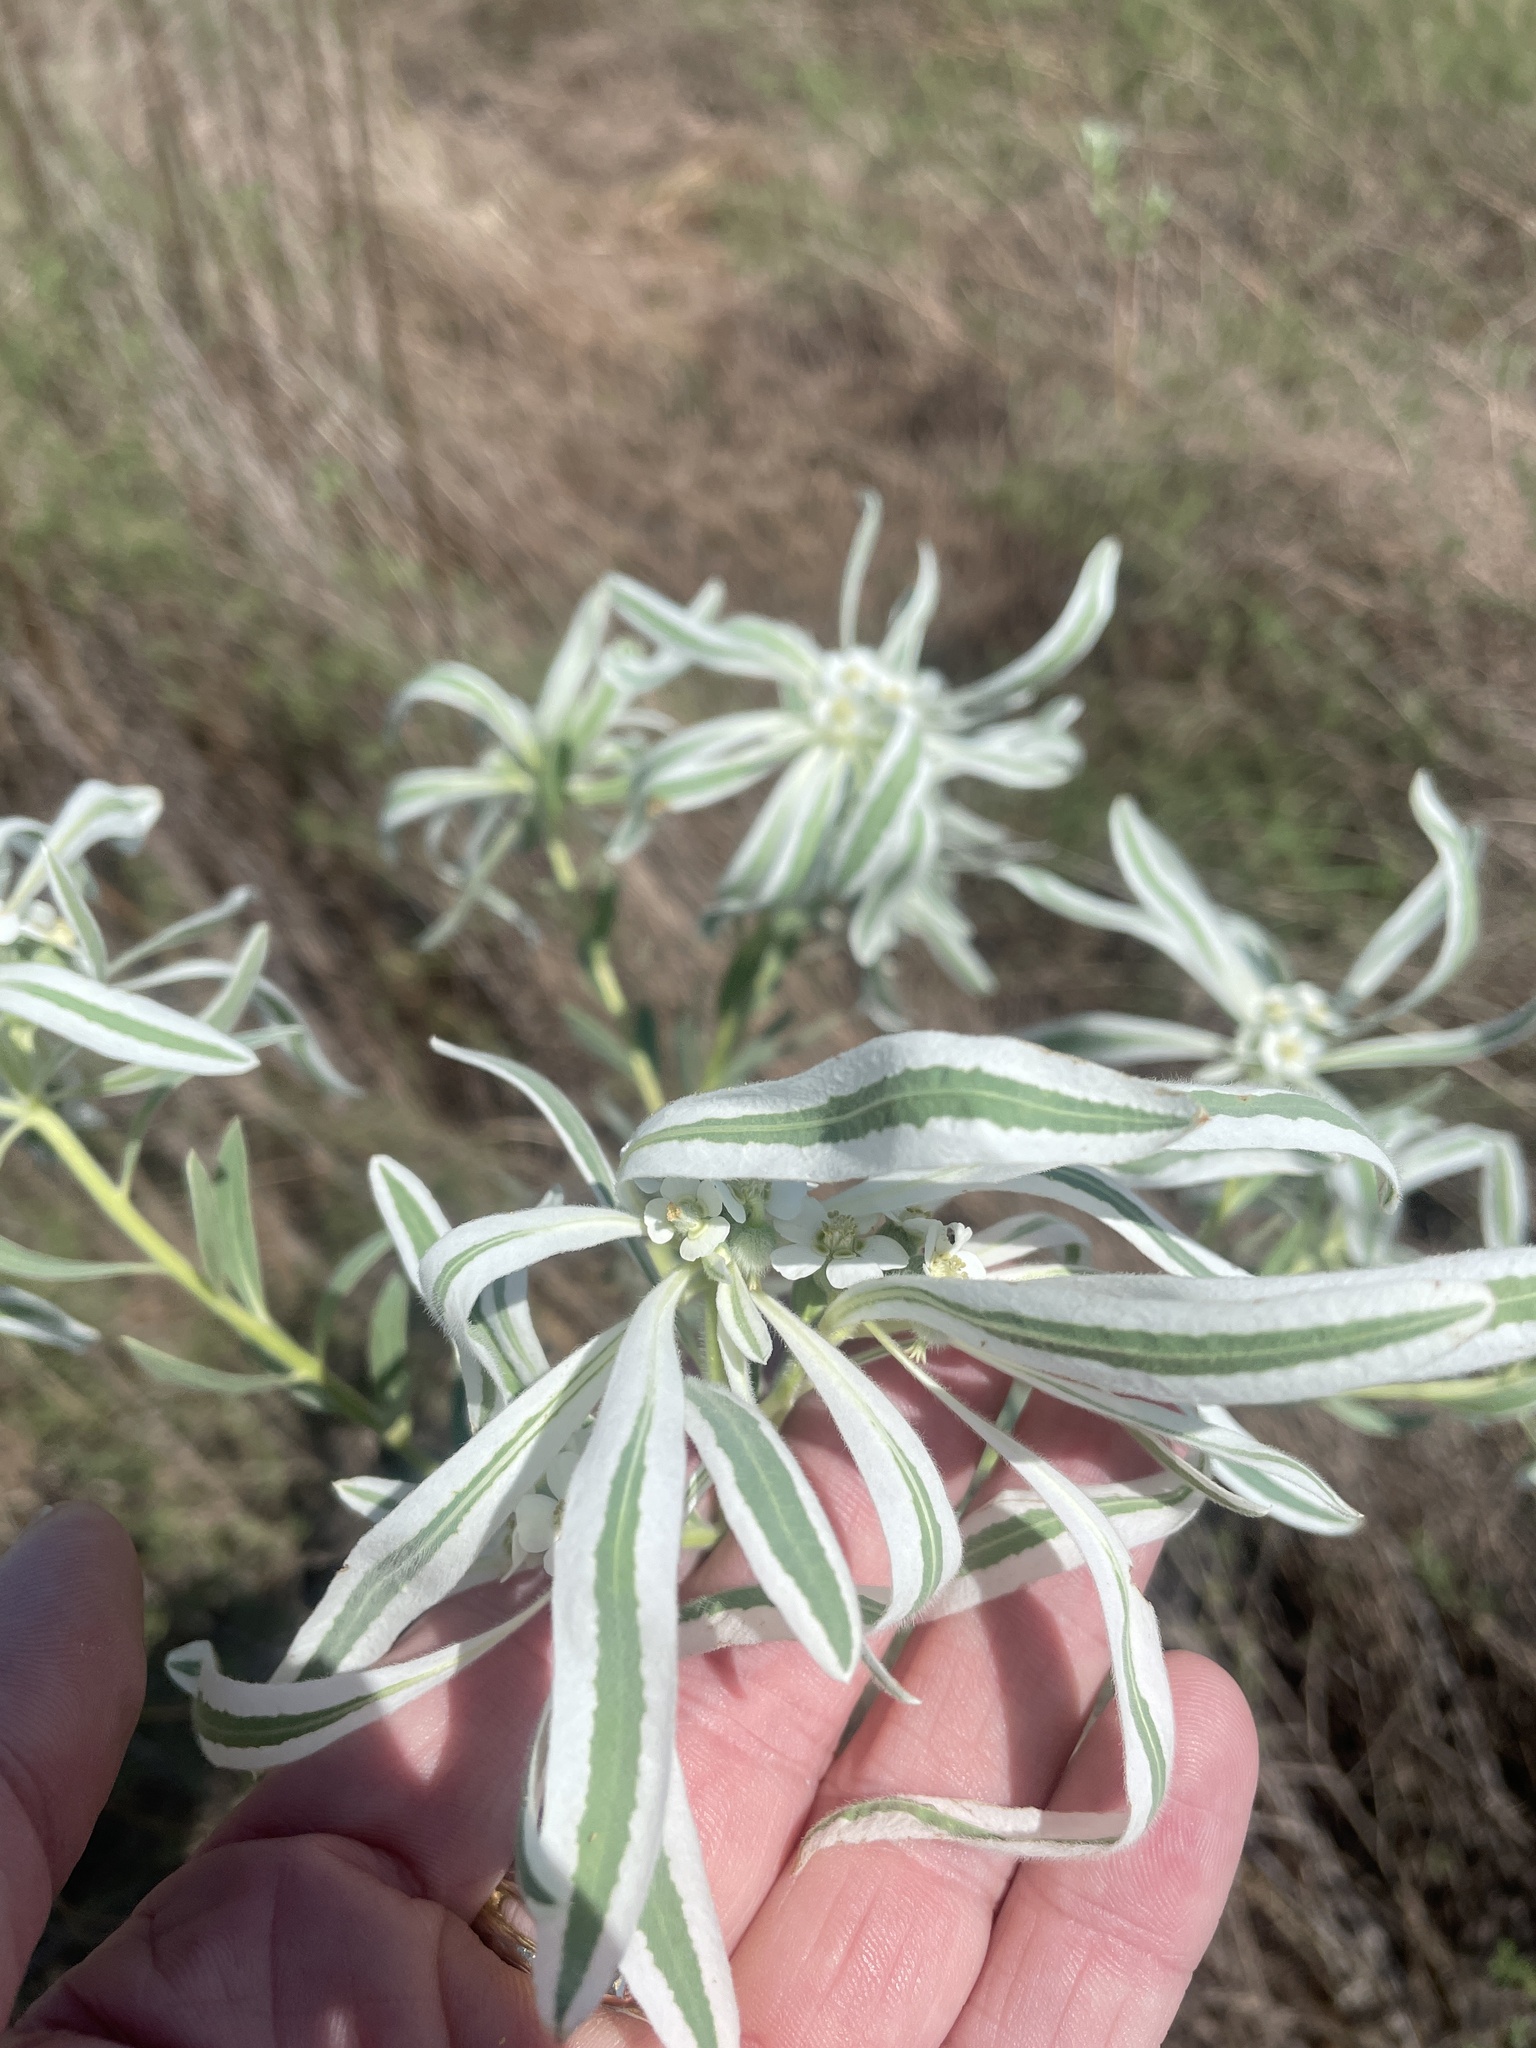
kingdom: Plantae
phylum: Tracheophyta
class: Magnoliopsida
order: Malpighiales
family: Euphorbiaceae
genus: Euphorbia
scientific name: Euphorbia bicolor
